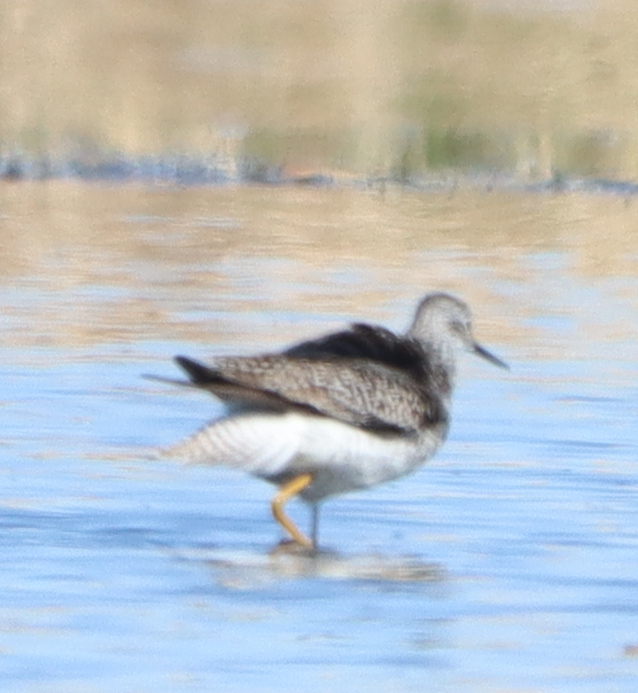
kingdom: Animalia
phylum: Chordata
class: Aves
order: Charadriiformes
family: Scolopacidae
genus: Tringa
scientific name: Tringa flavipes
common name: Lesser yellowlegs
